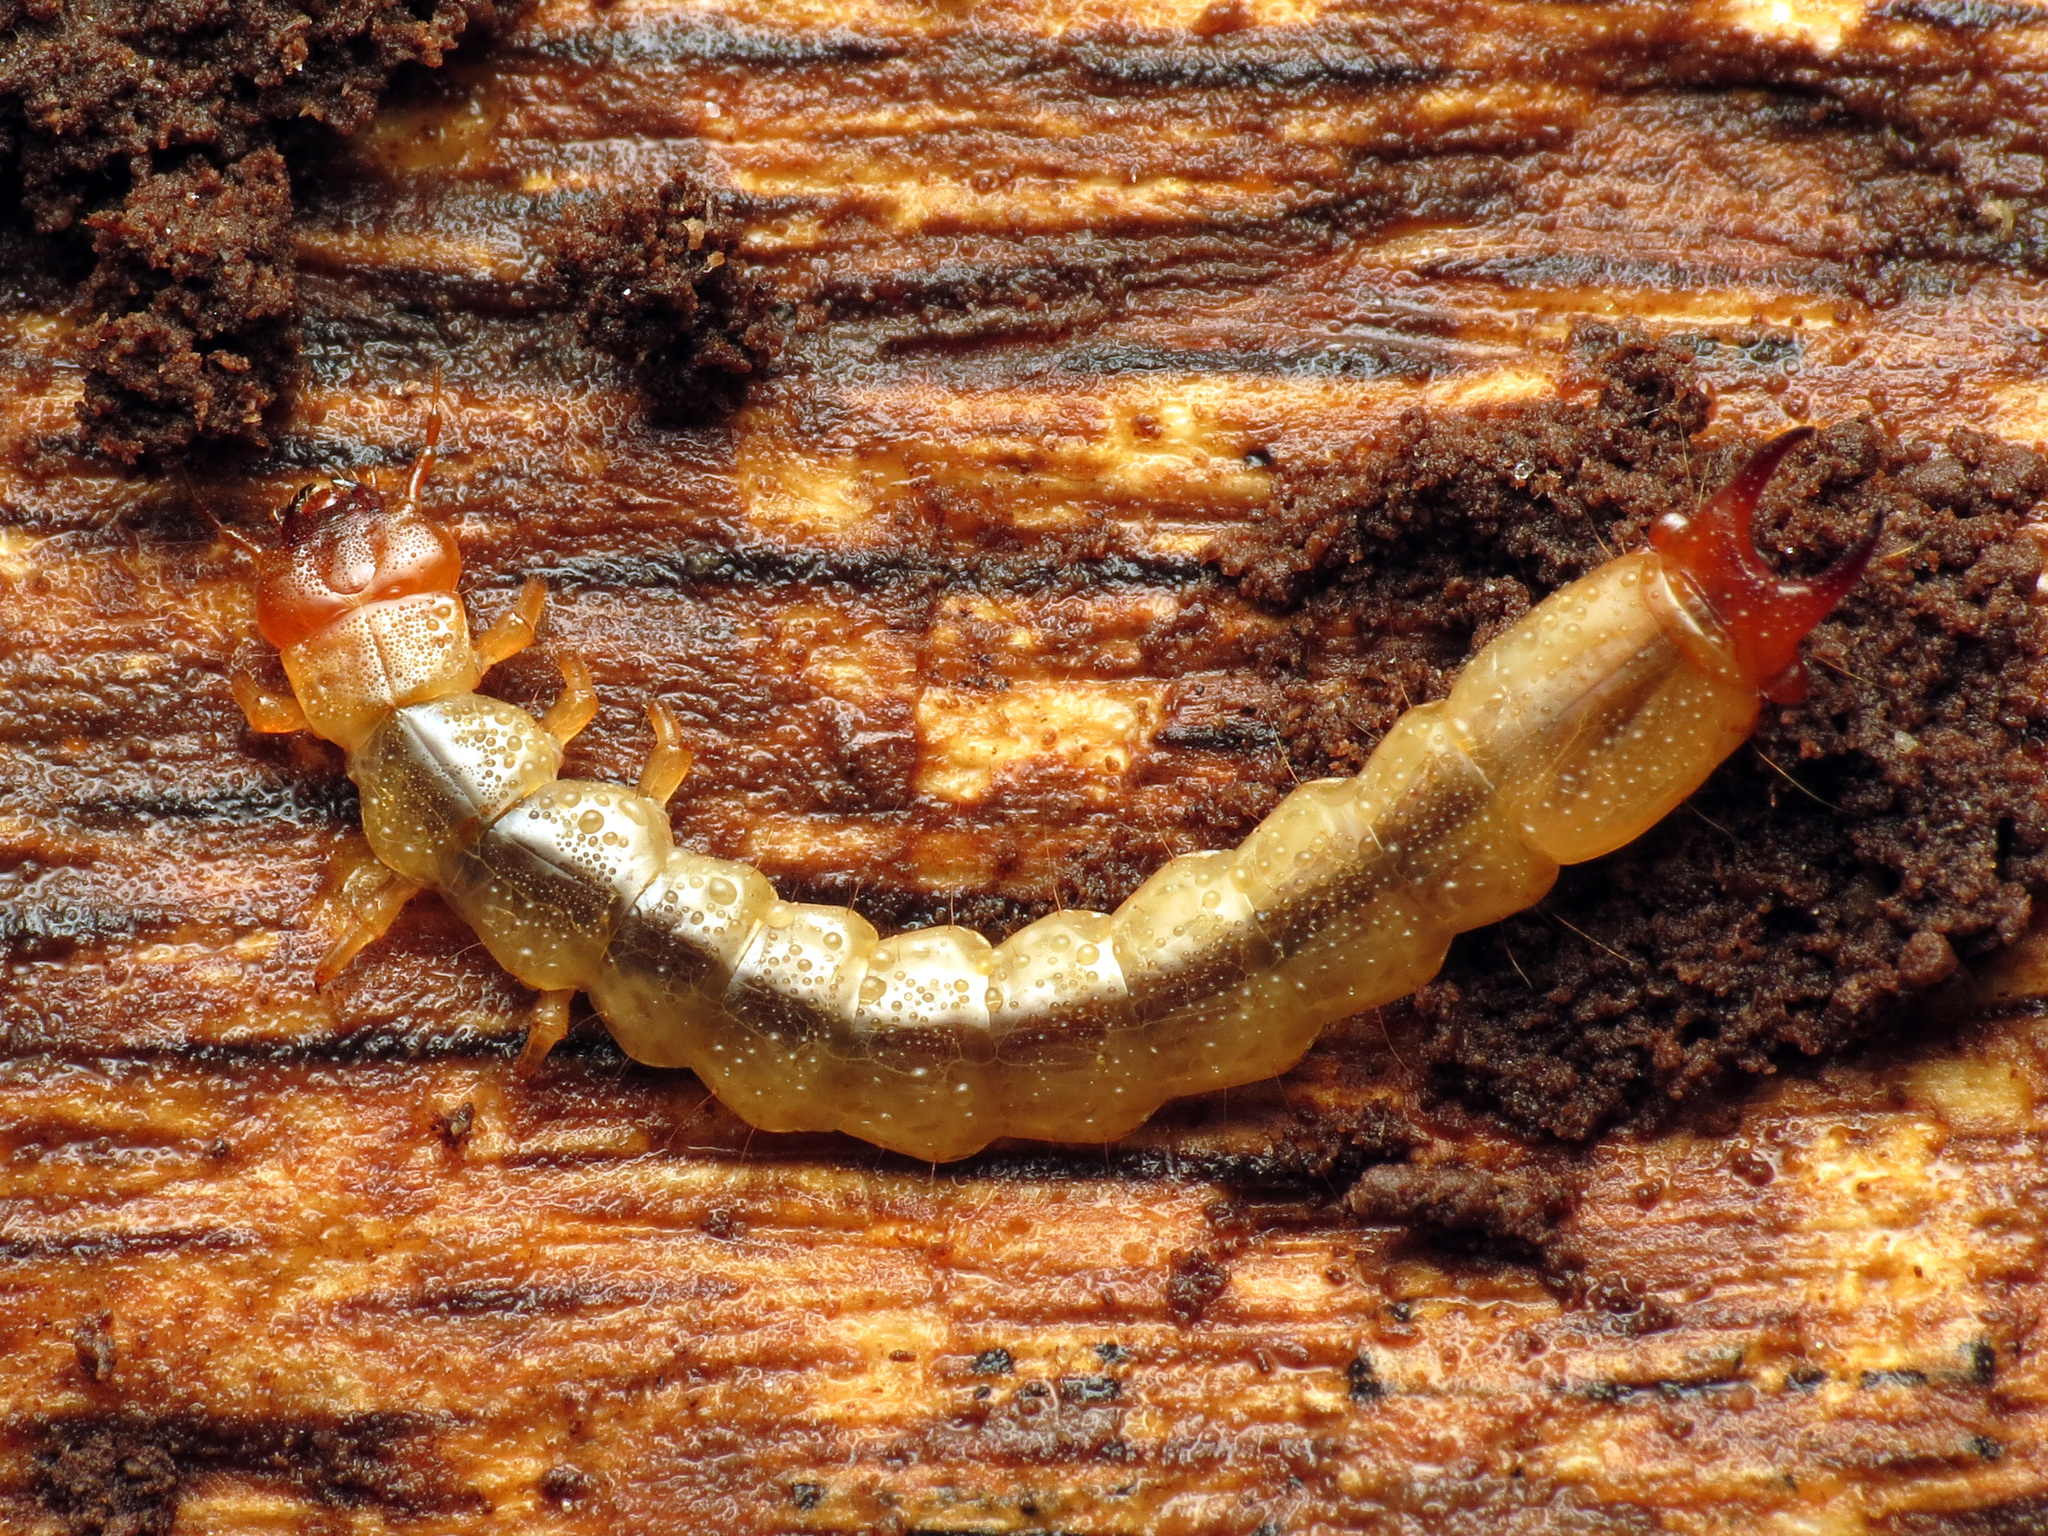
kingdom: Animalia
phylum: Arthropoda
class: Insecta
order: Coleoptera
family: Pyrochroidae
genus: Dendroides
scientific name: Dendroides canadensis
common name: Canada fire-colored beetle
